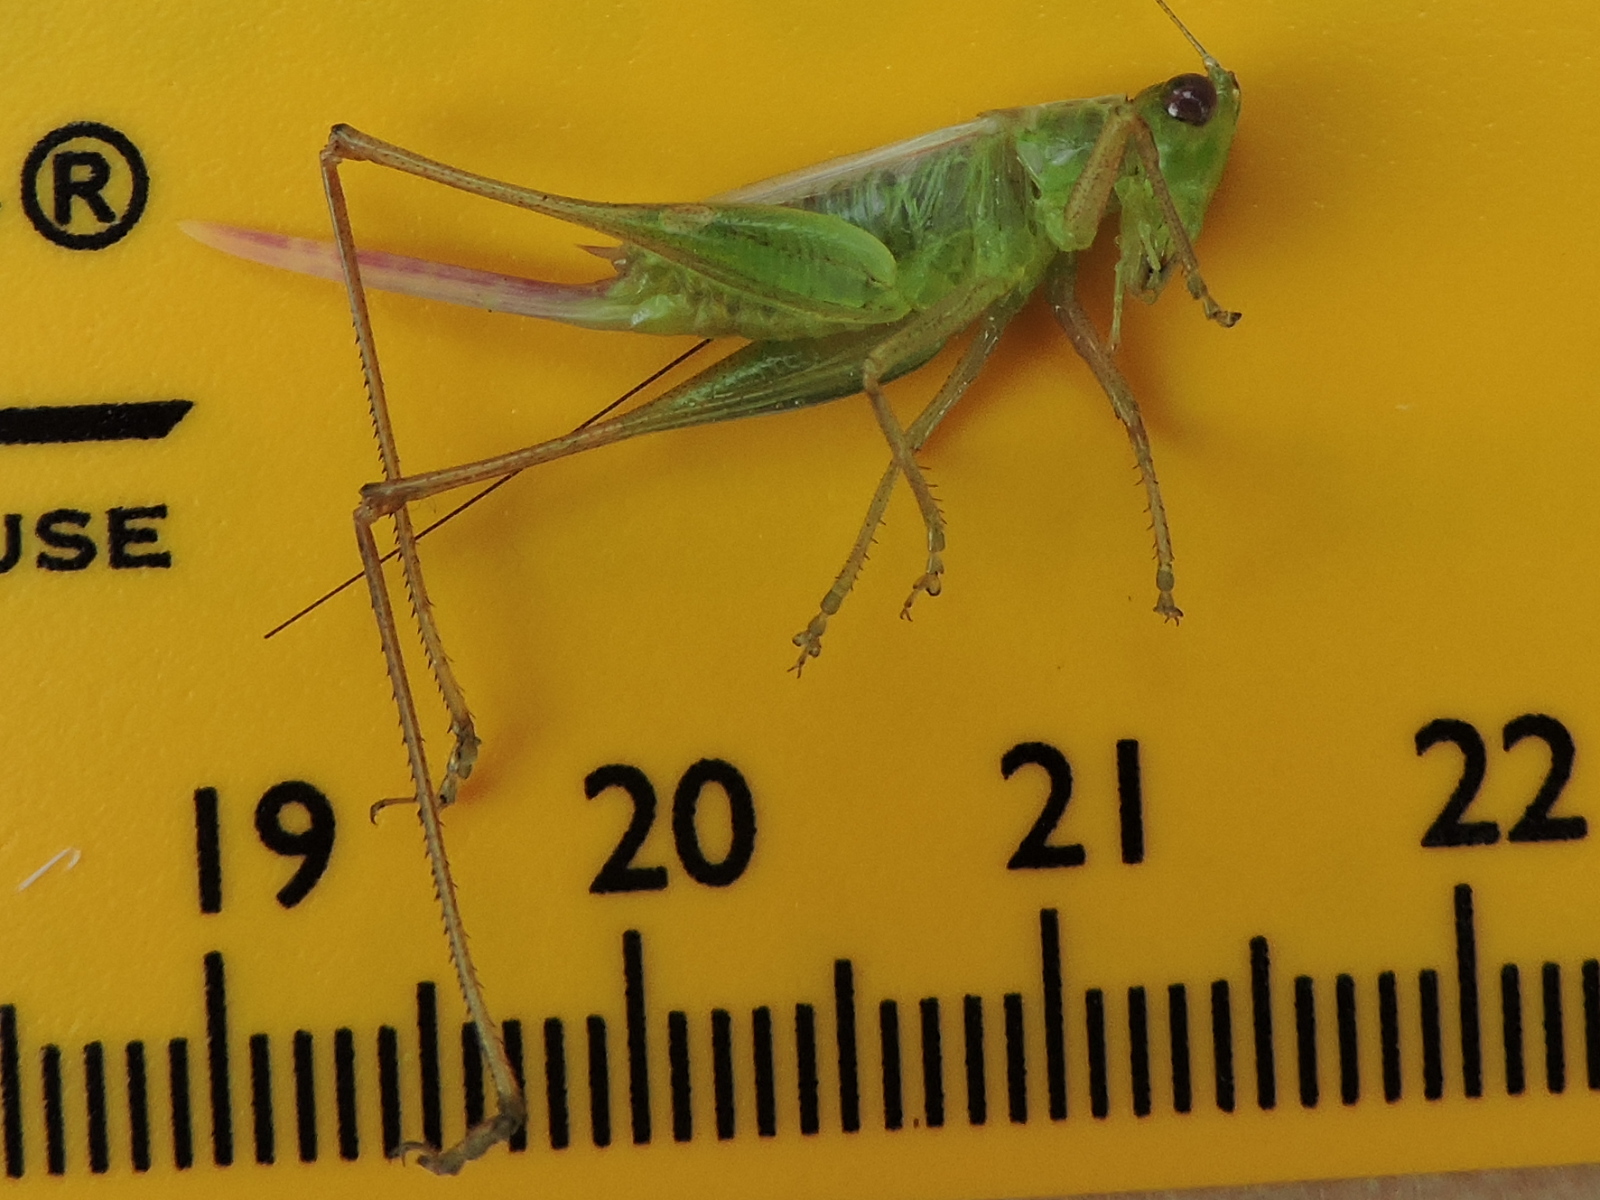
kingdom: Animalia
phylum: Arthropoda
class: Insecta
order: Orthoptera
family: Tettigoniidae
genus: Conocephalus
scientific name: Conocephalus brevipennis
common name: Short-winged meadow katydid
